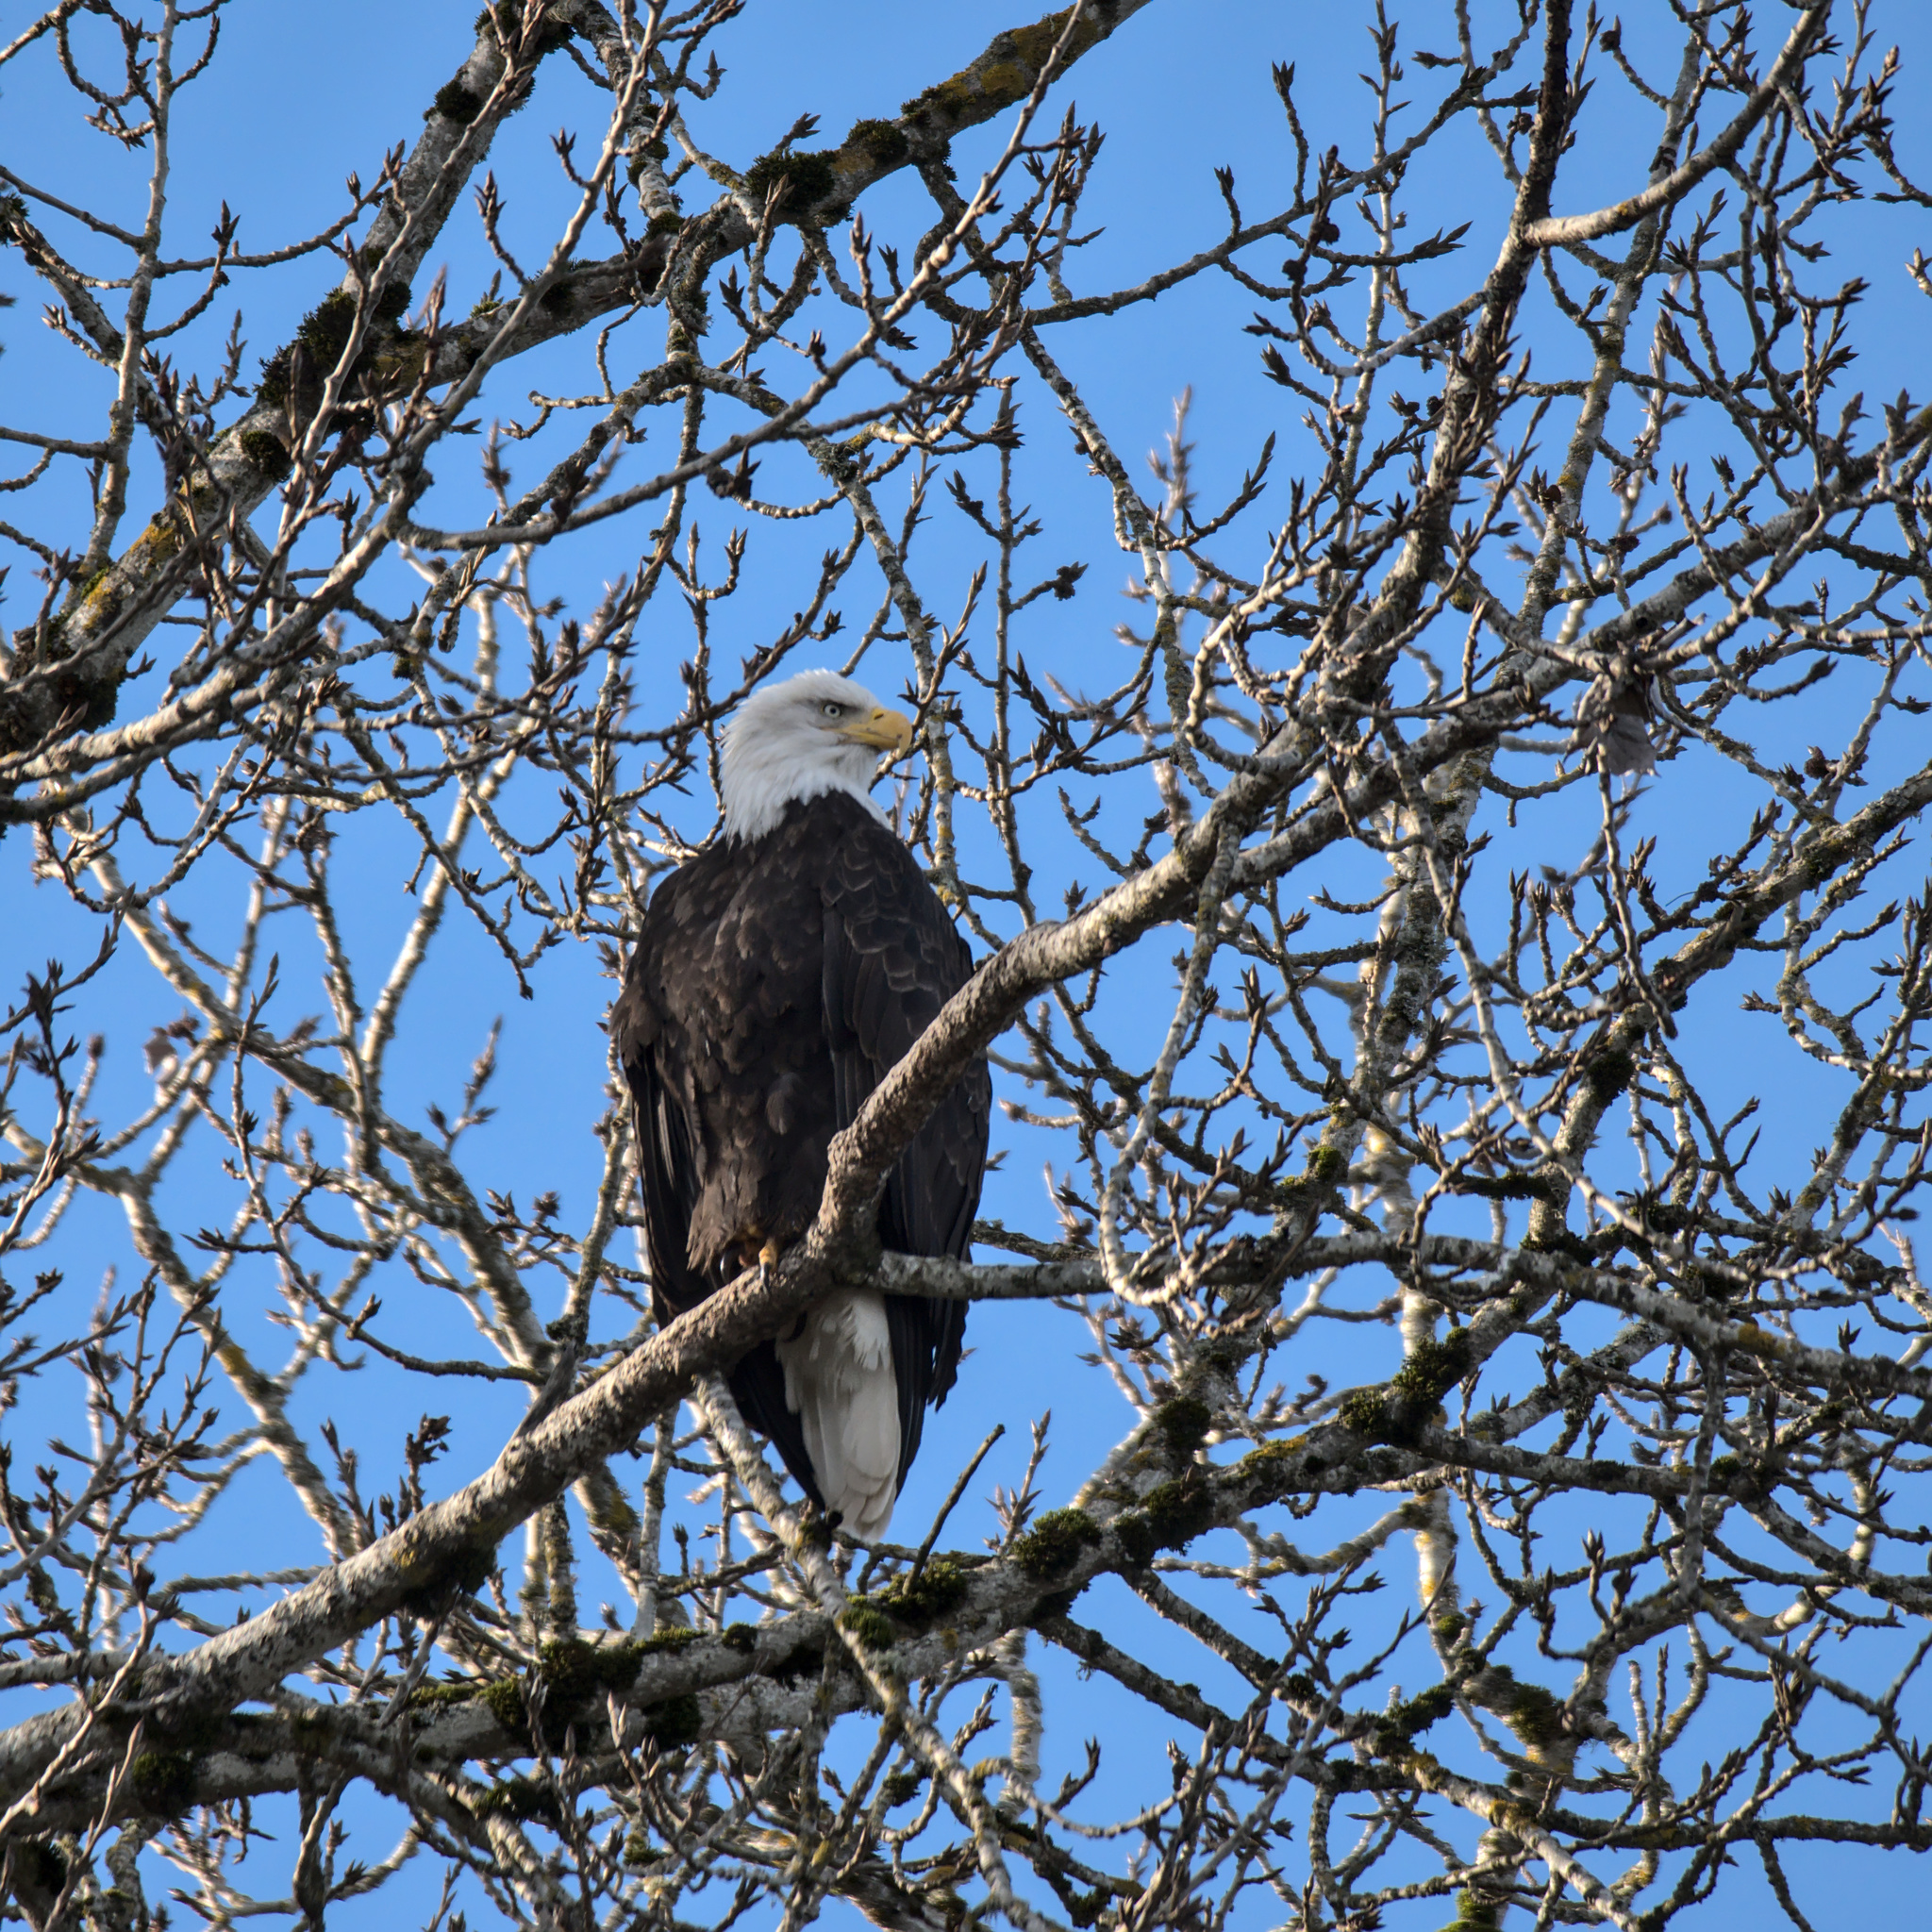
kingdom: Animalia
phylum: Chordata
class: Aves
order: Accipitriformes
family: Accipitridae
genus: Haliaeetus
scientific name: Haliaeetus leucocephalus
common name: Bald eagle
